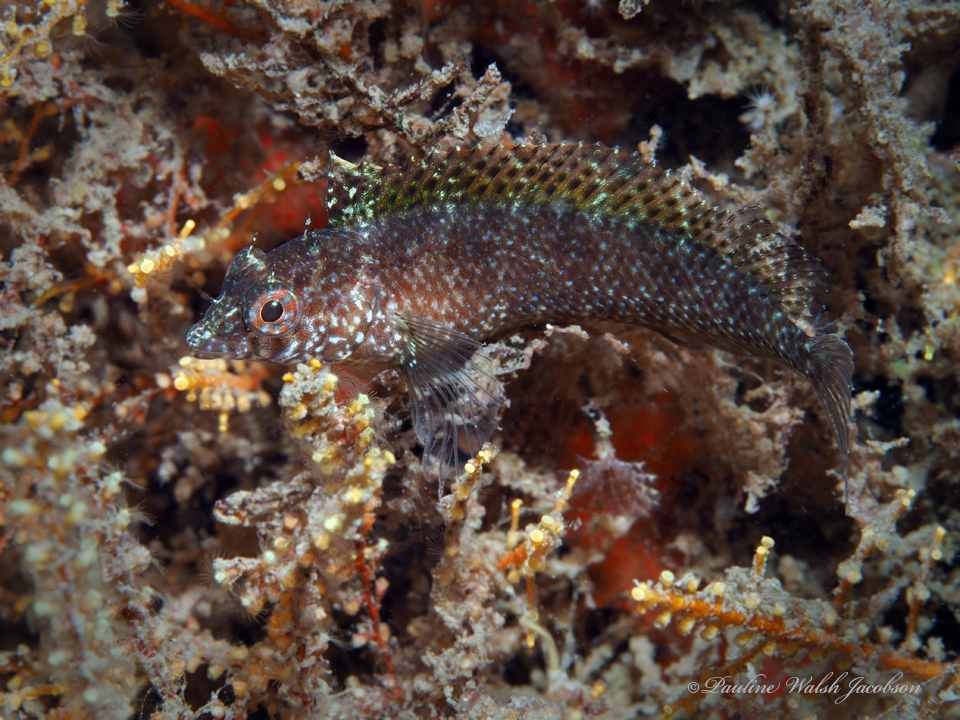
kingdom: Animalia
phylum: Chordata
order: Perciformes
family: Labrisomidae
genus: Malacoctenus
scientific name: Malacoctenus macropus
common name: Rosy blenny
